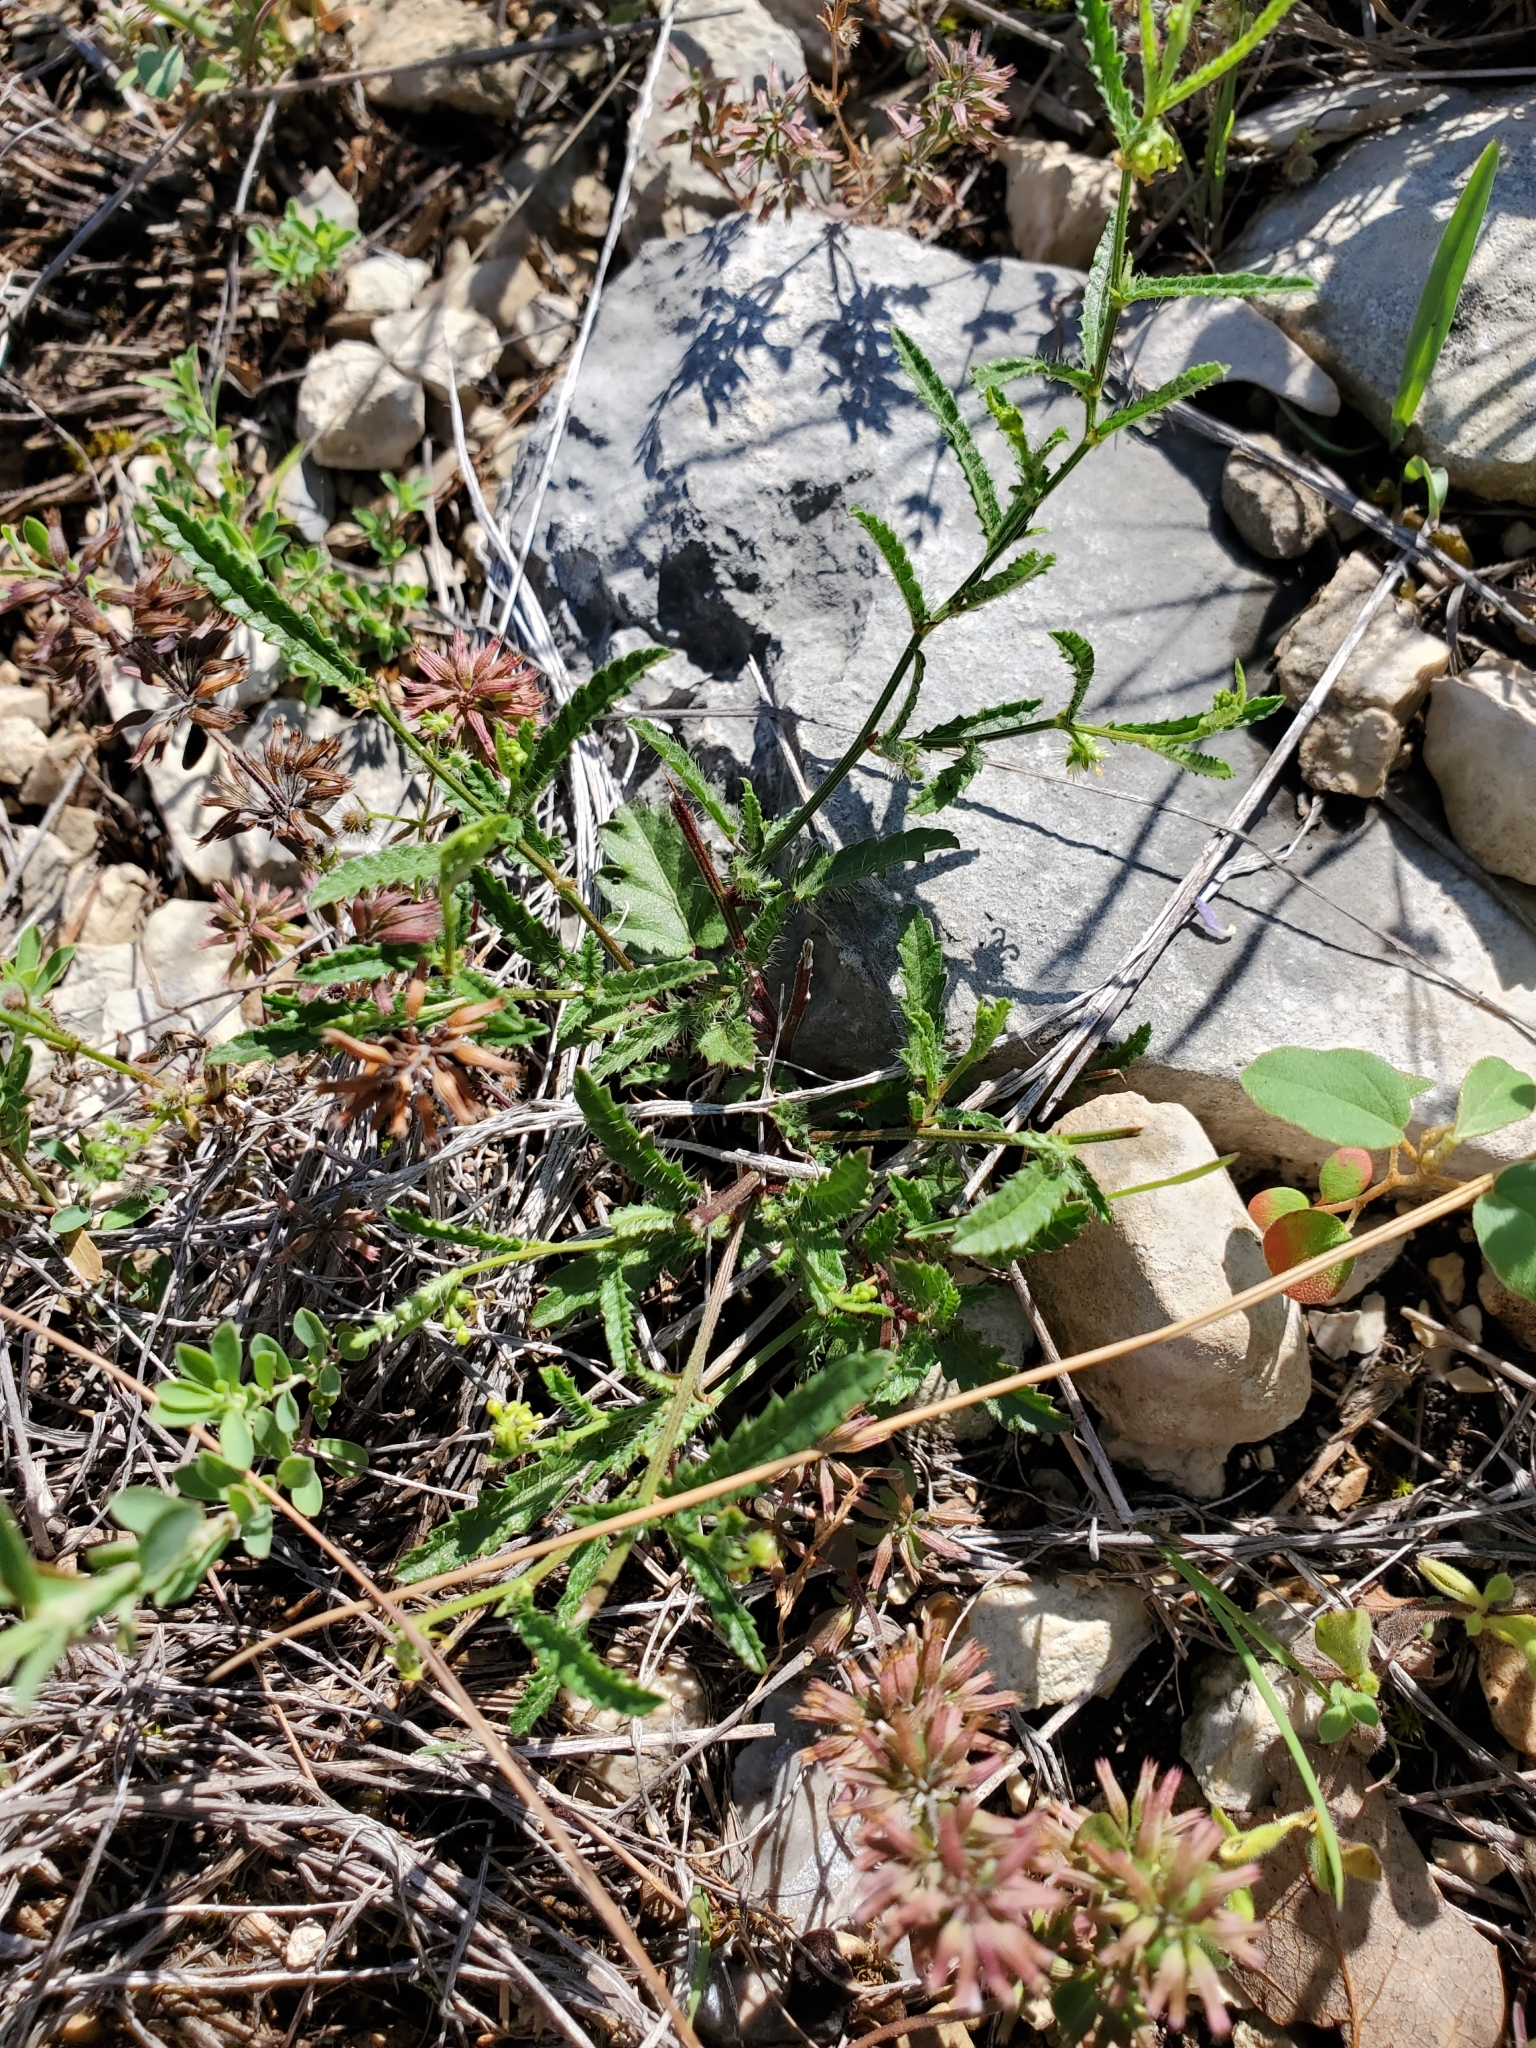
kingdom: Plantae
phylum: Tracheophyta
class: Magnoliopsida
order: Malpighiales
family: Euphorbiaceae
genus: Tragia
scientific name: Tragia ramosa
